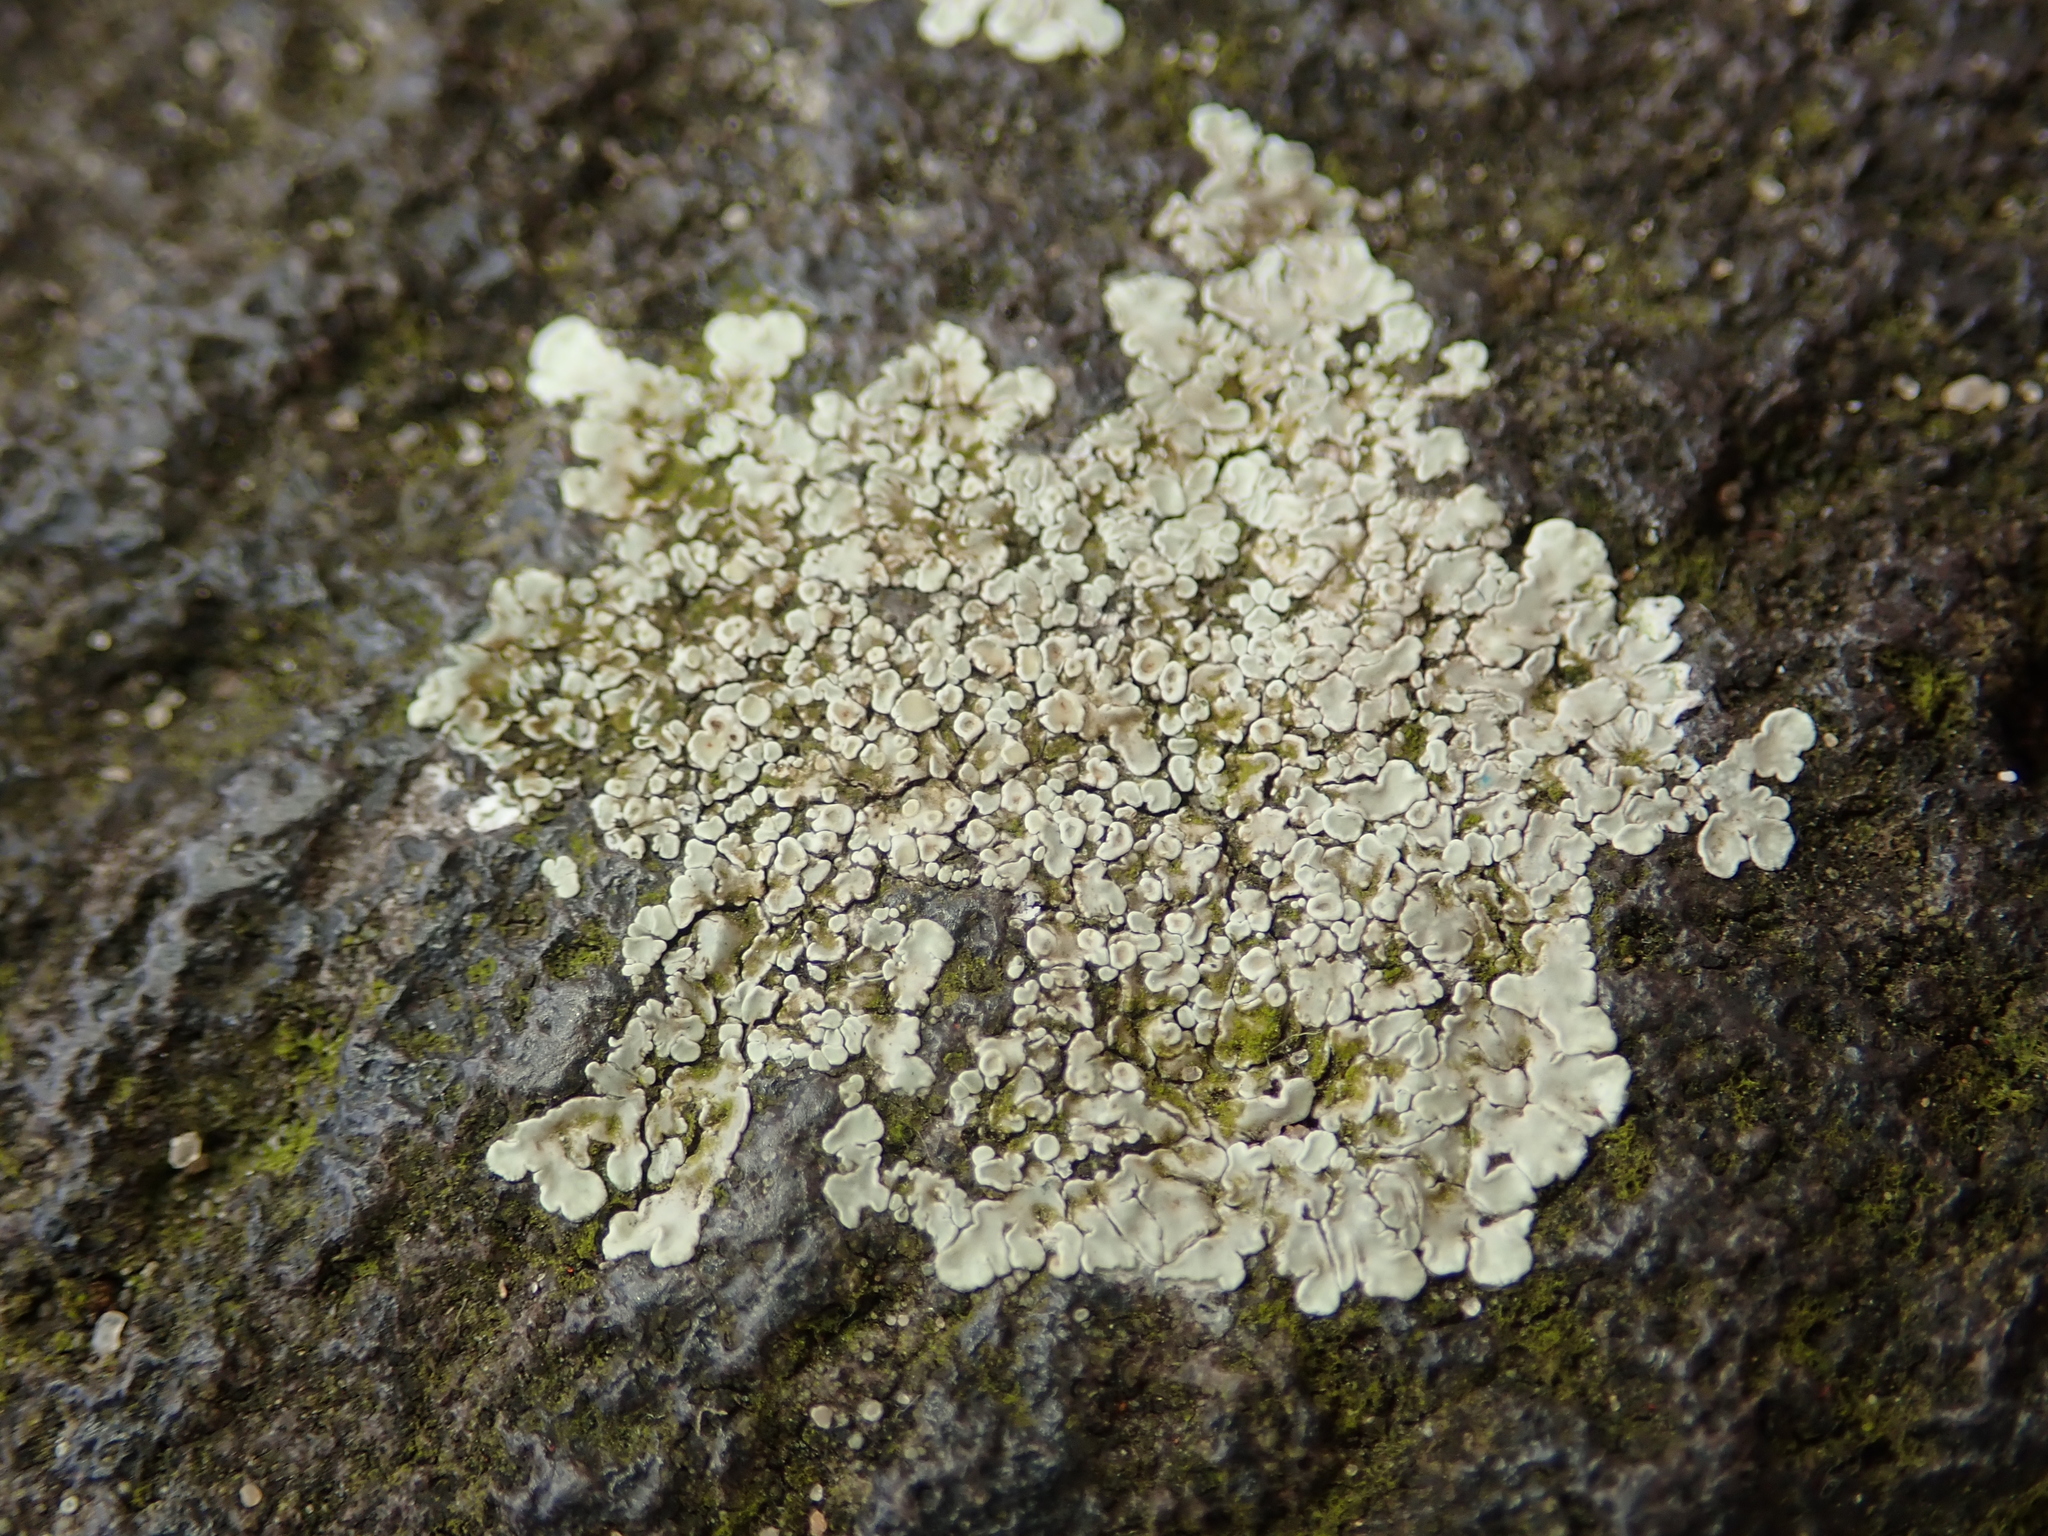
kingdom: Fungi
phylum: Ascomycota
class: Lecanoromycetes
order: Lecanorales
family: Lecanoraceae
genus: Protoparmeliopsis
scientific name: Protoparmeliopsis muralis
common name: Stonewall rim lichen
